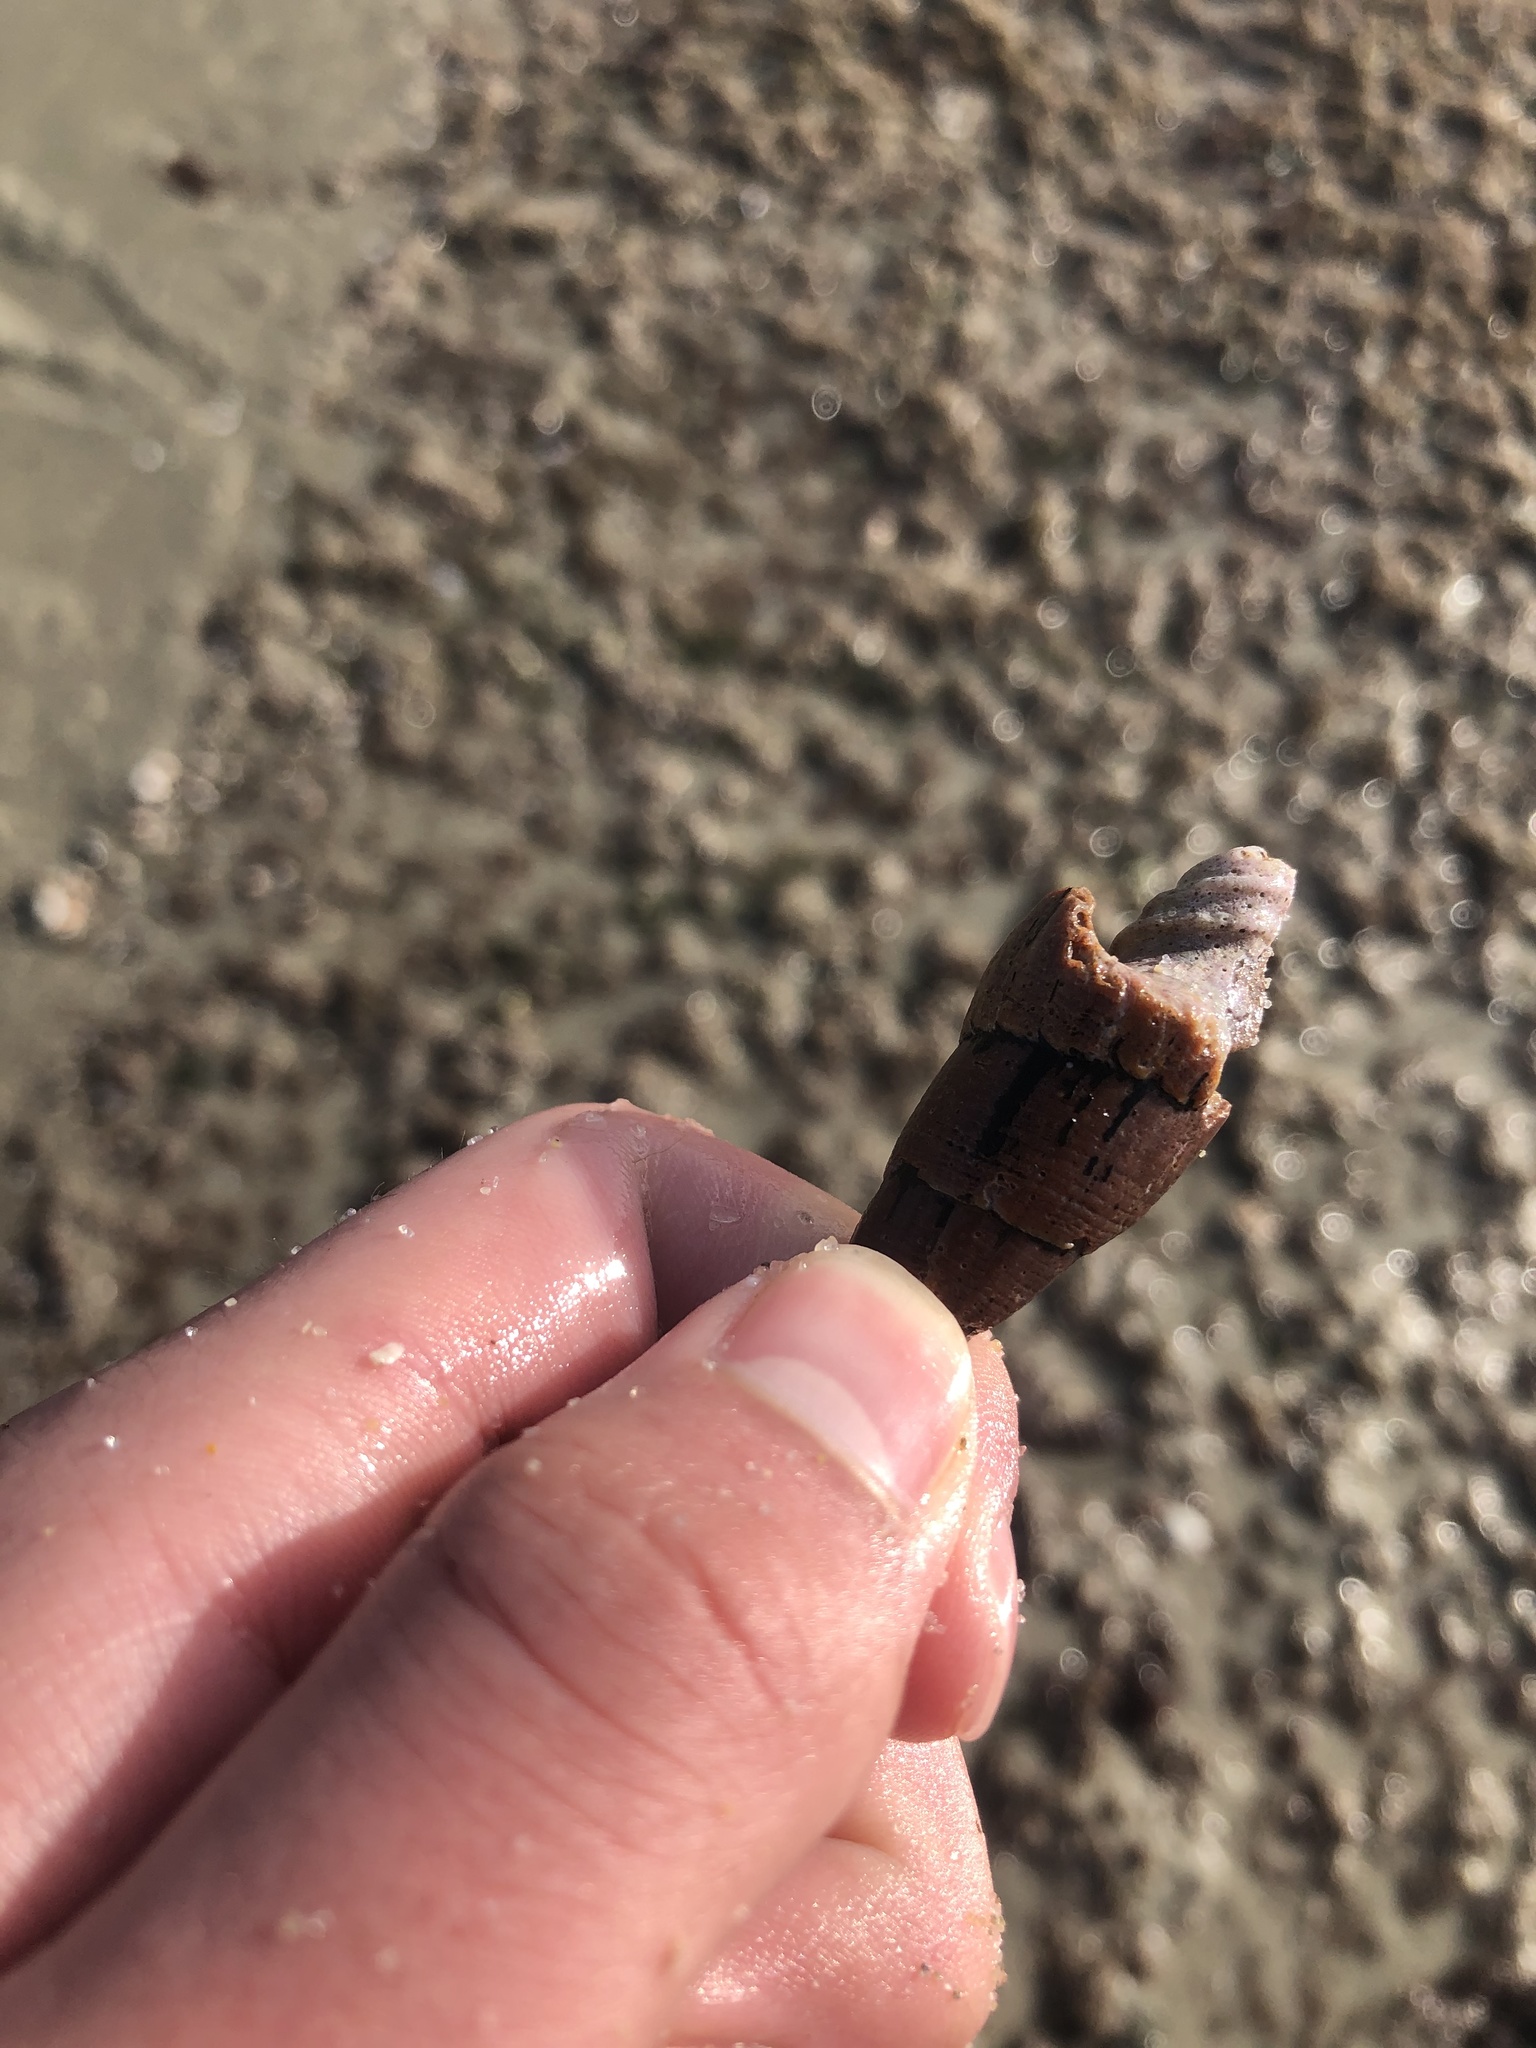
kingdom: Animalia
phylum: Mollusca
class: Gastropoda
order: Neogastropoda
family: Mitridae
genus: Atrimitra
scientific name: Atrimitra idae
